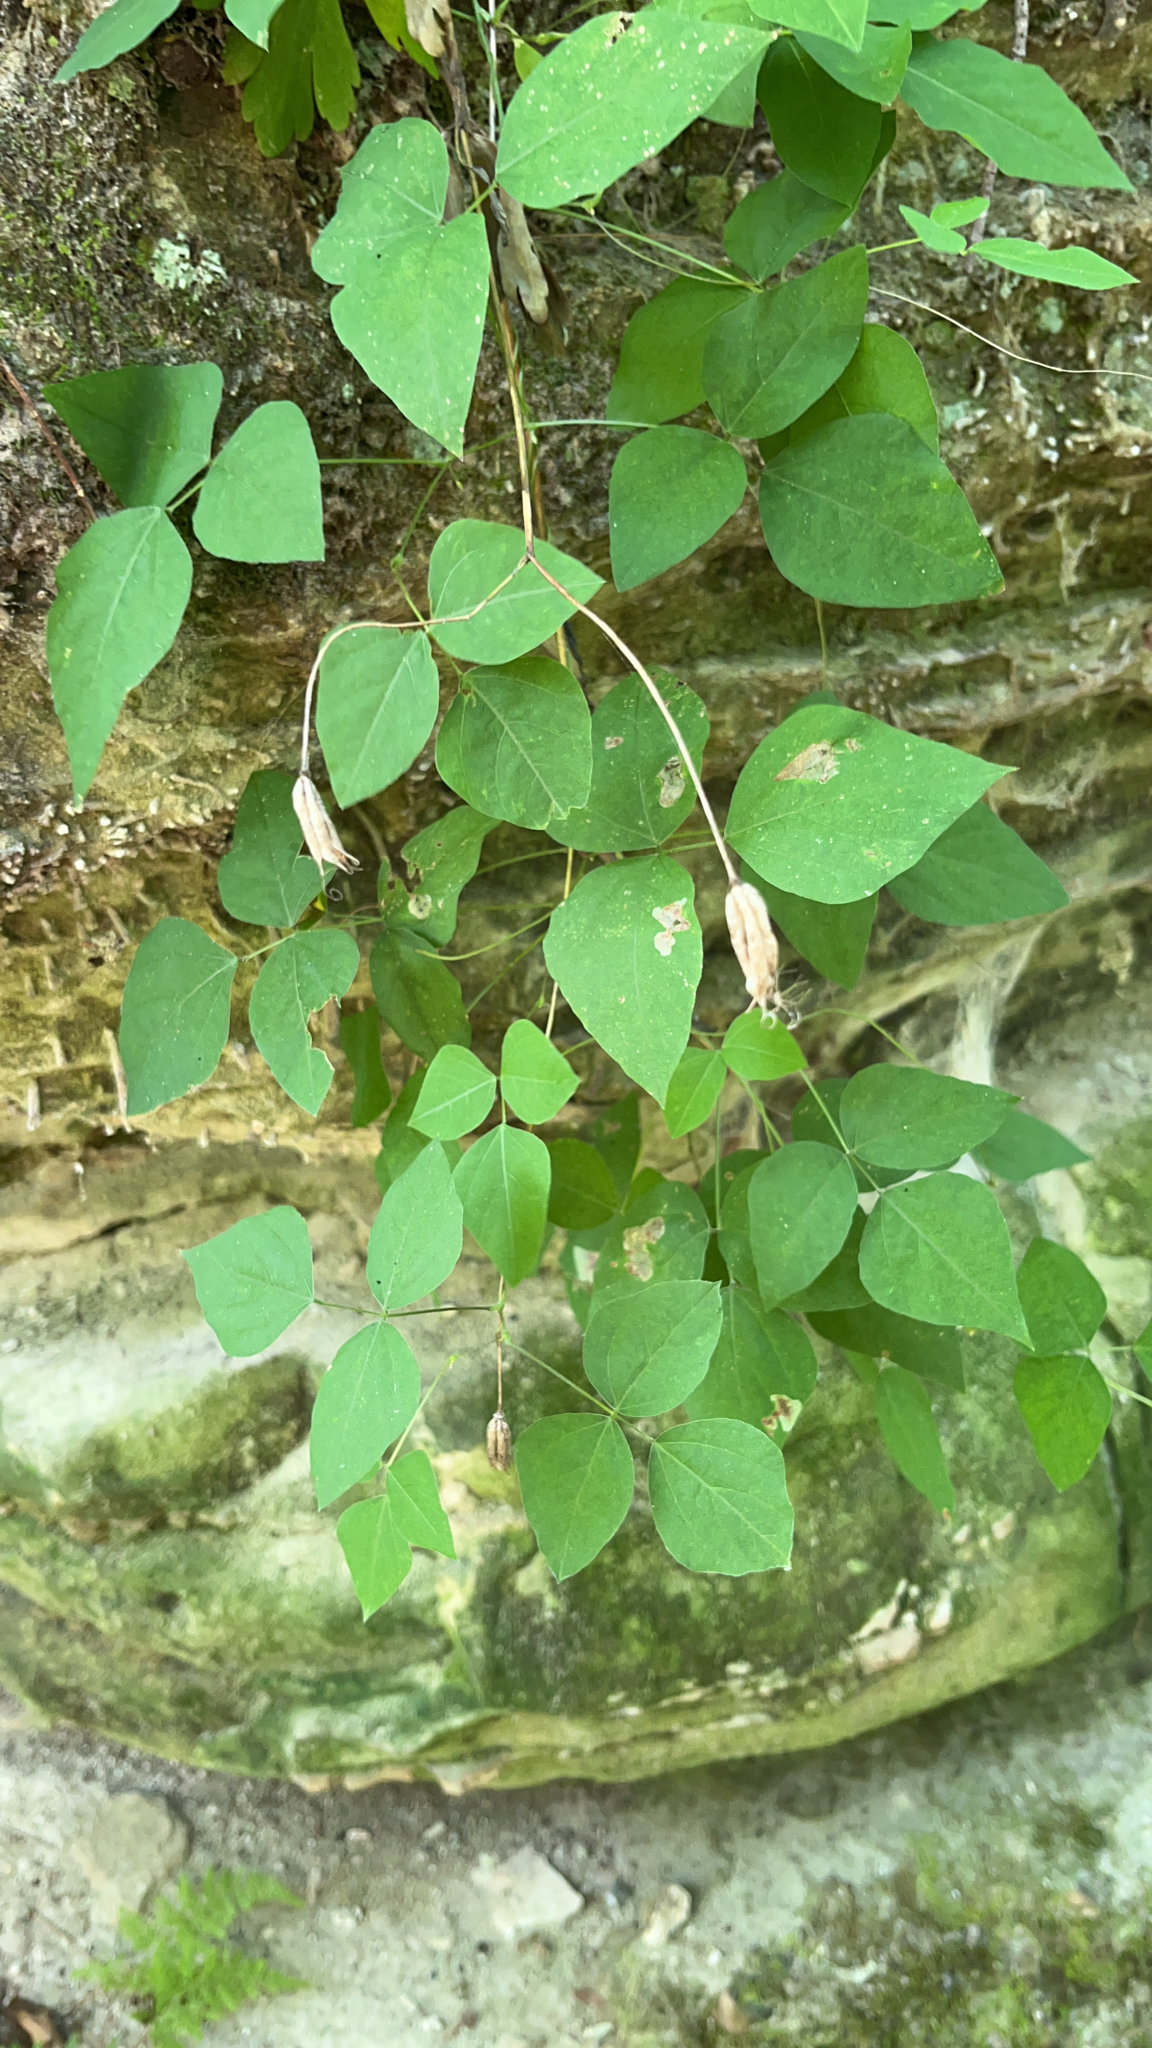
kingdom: Plantae
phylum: Tracheophyta
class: Magnoliopsida
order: Fabales
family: Fabaceae
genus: Amphicarpaea
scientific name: Amphicarpaea bracteata
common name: American hog peanut
